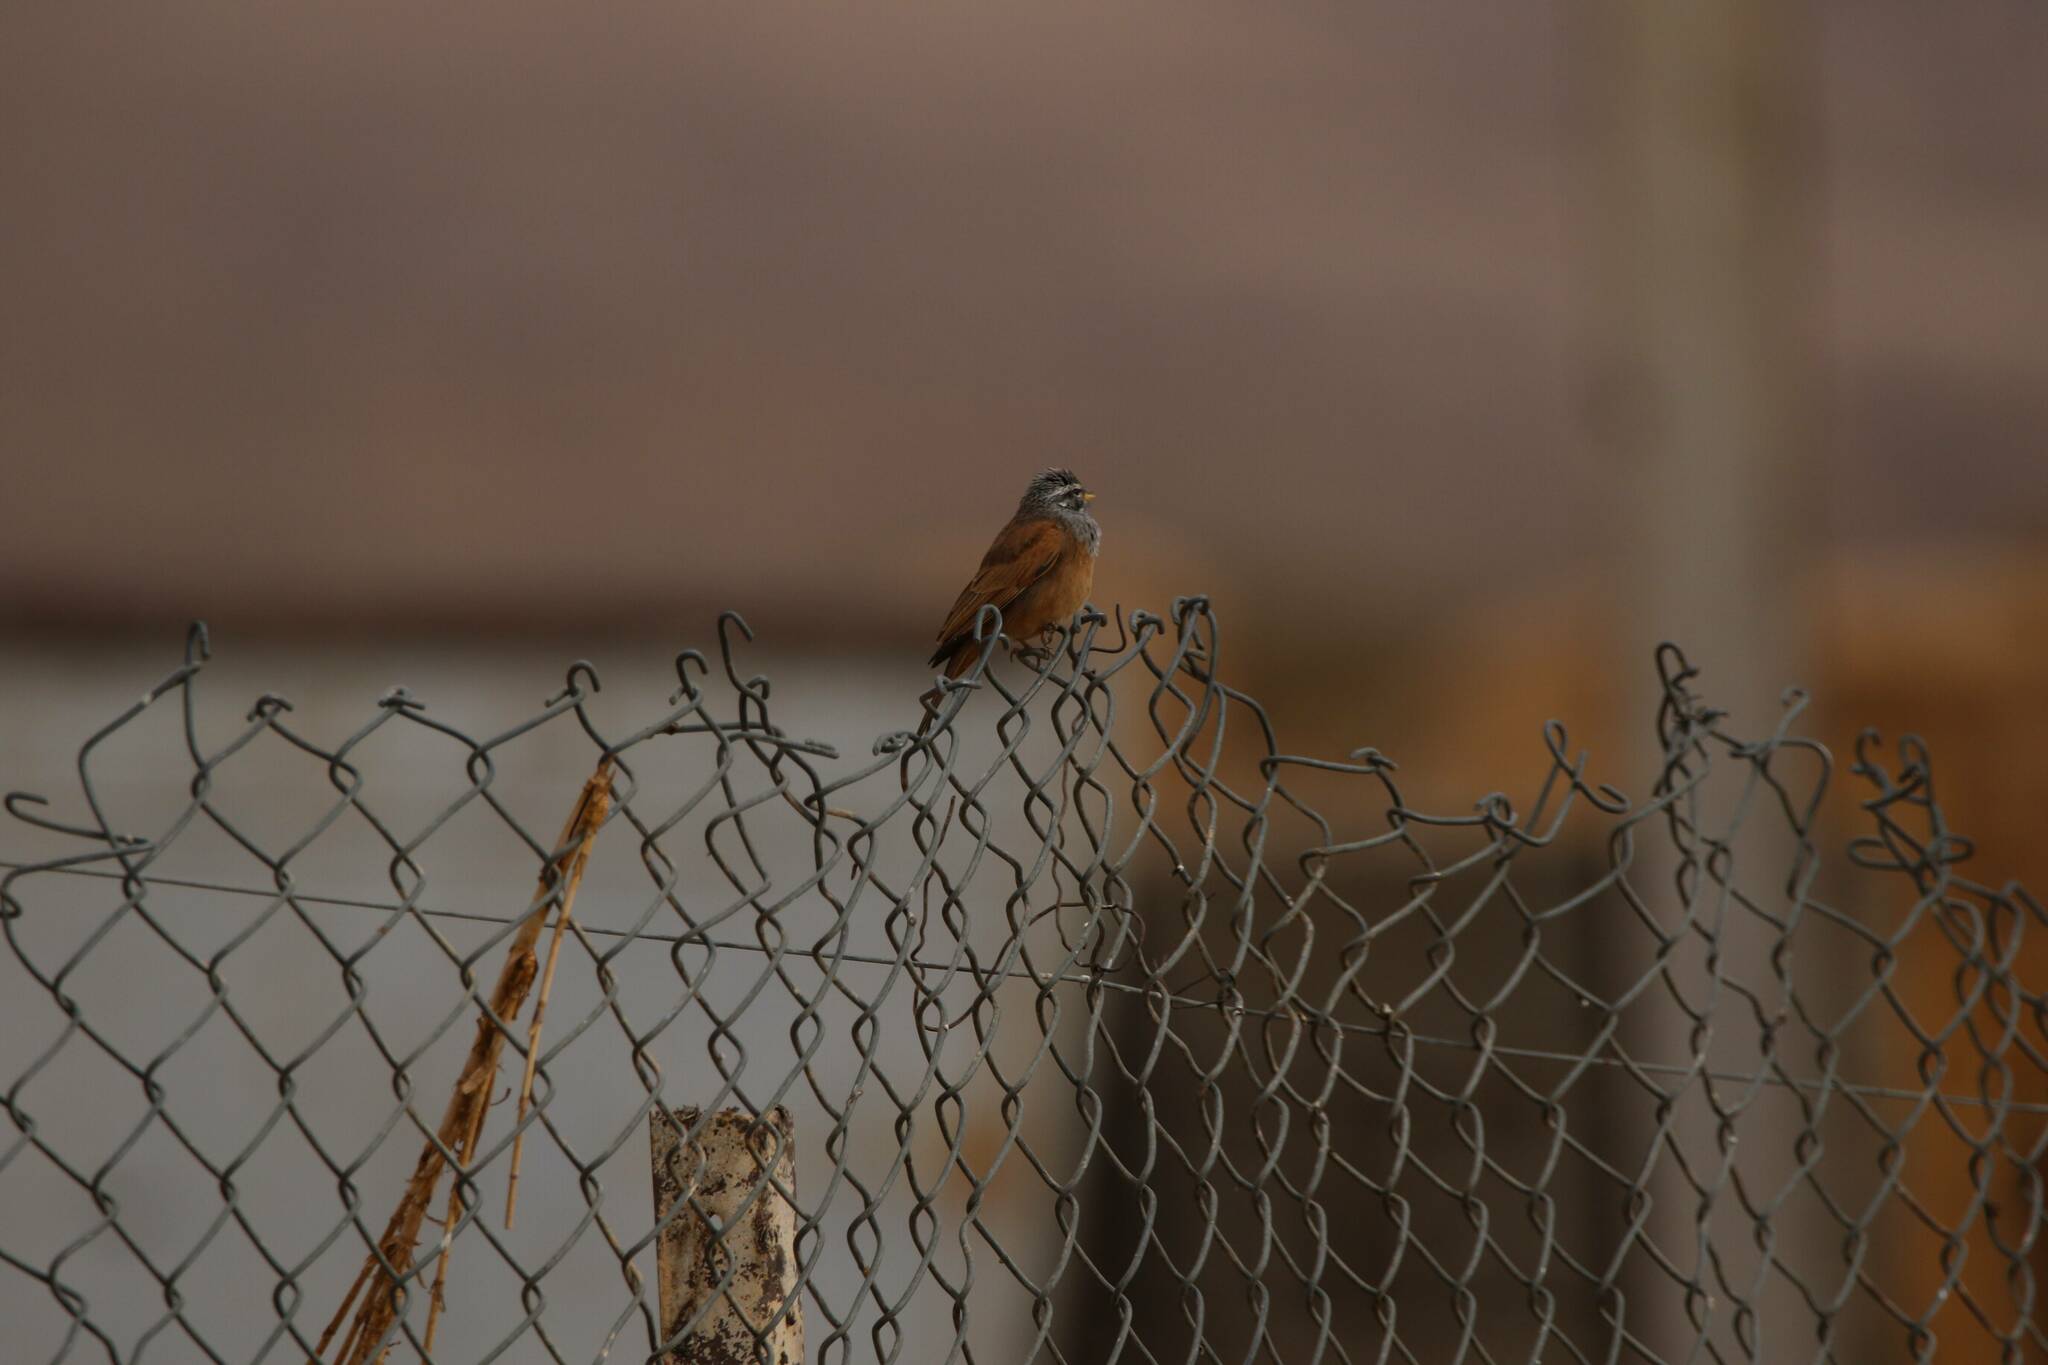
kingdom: Animalia
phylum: Chordata
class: Aves
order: Passeriformes
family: Emberizidae
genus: Emberiza
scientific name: Emberiza sahari
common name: House bunting
